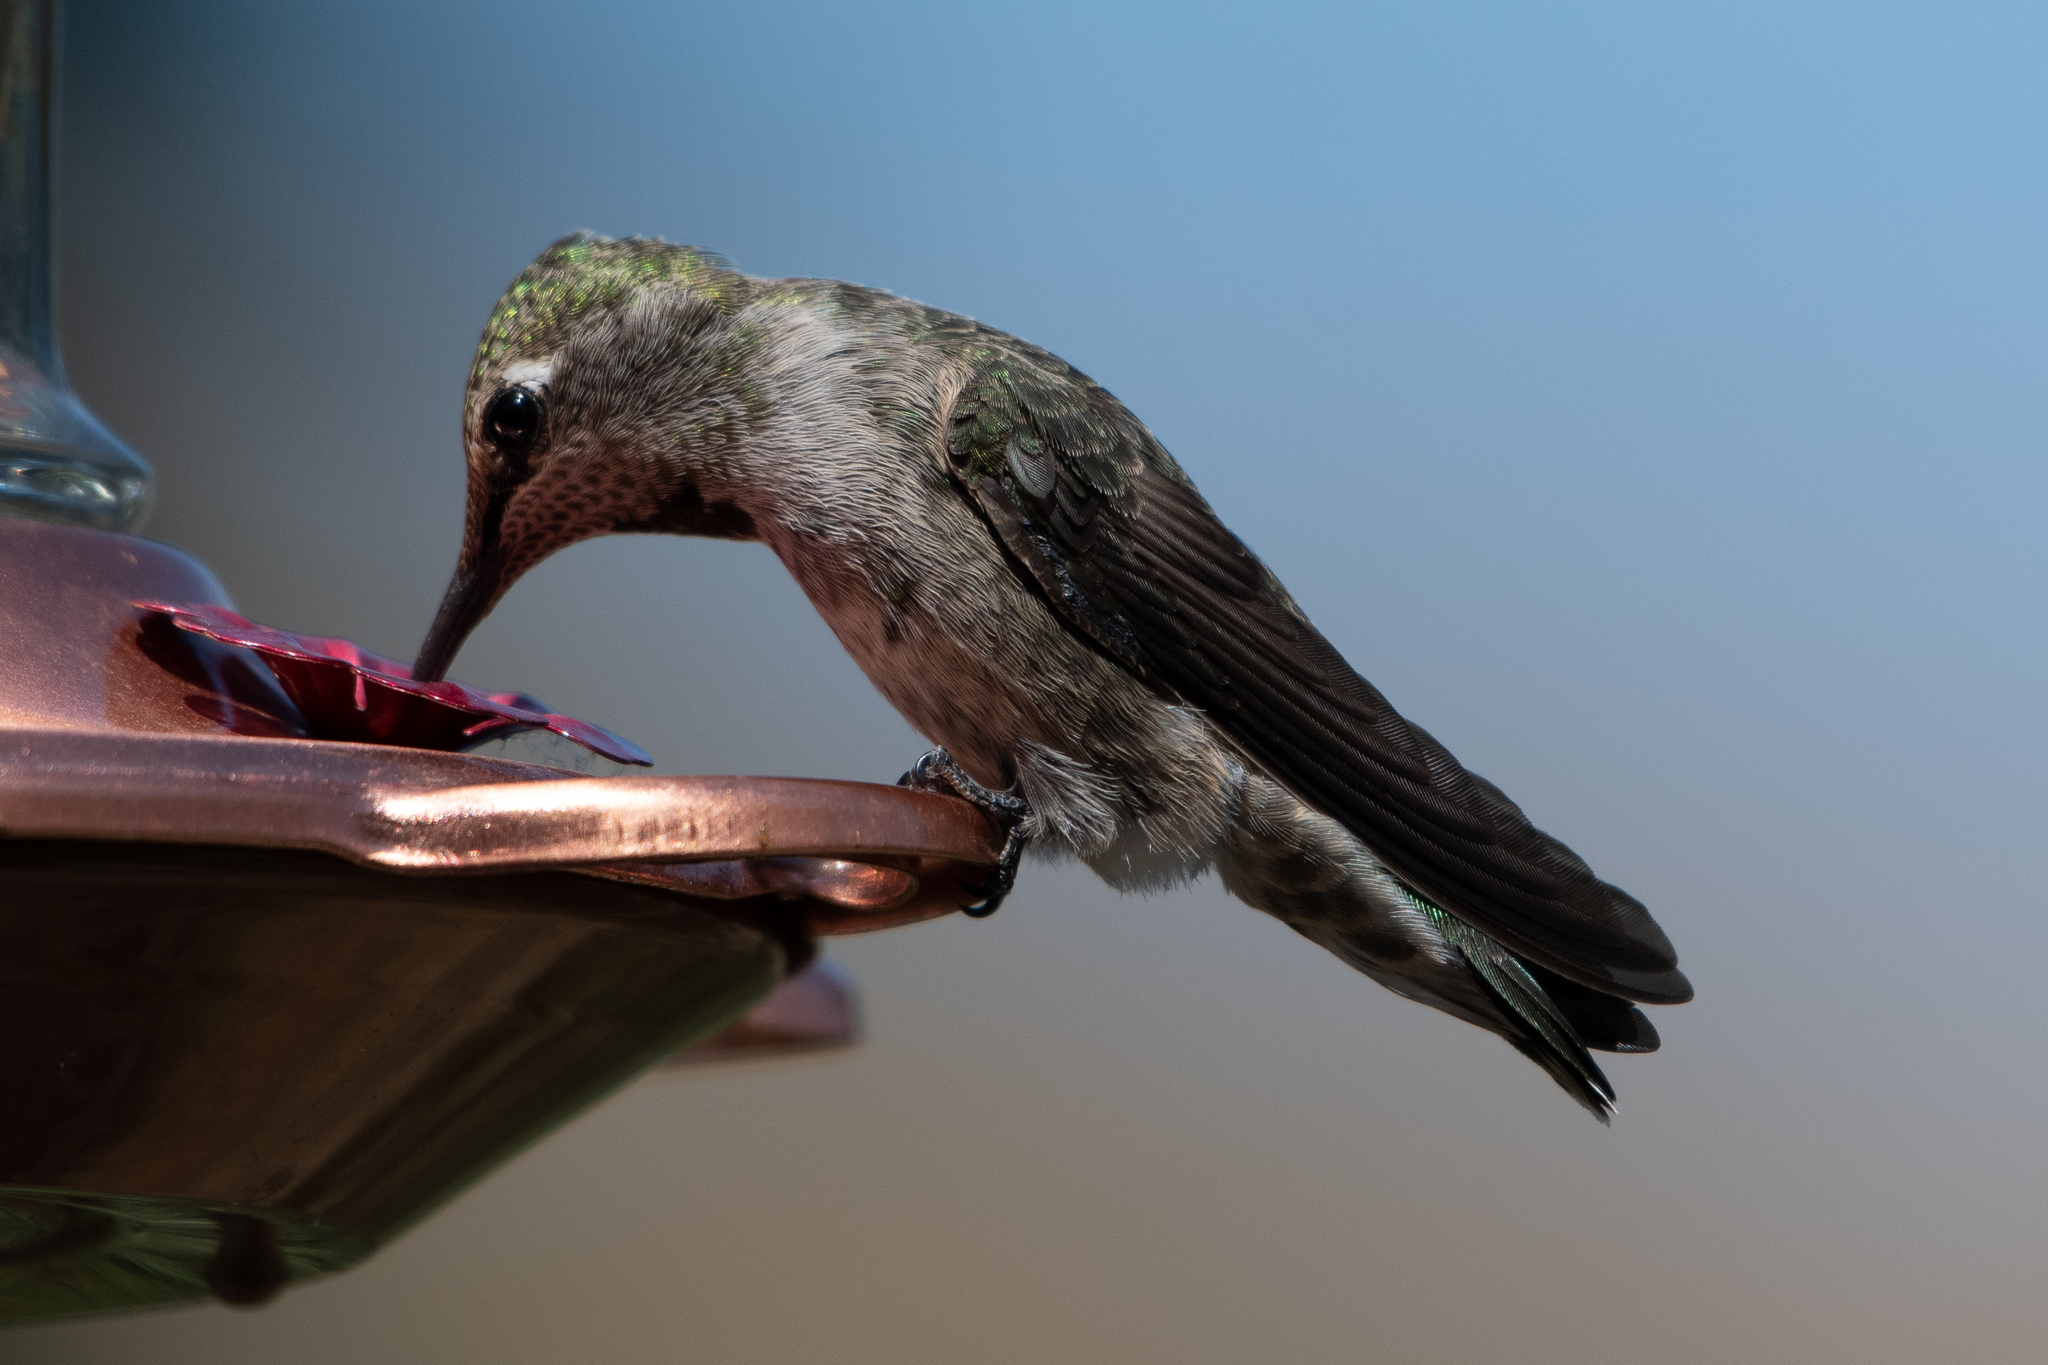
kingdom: Animalia
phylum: Chordata
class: Aves
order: Apodiformes
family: Trochilidae
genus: Calypte
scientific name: Calypte anna
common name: Anna's hummingbird
